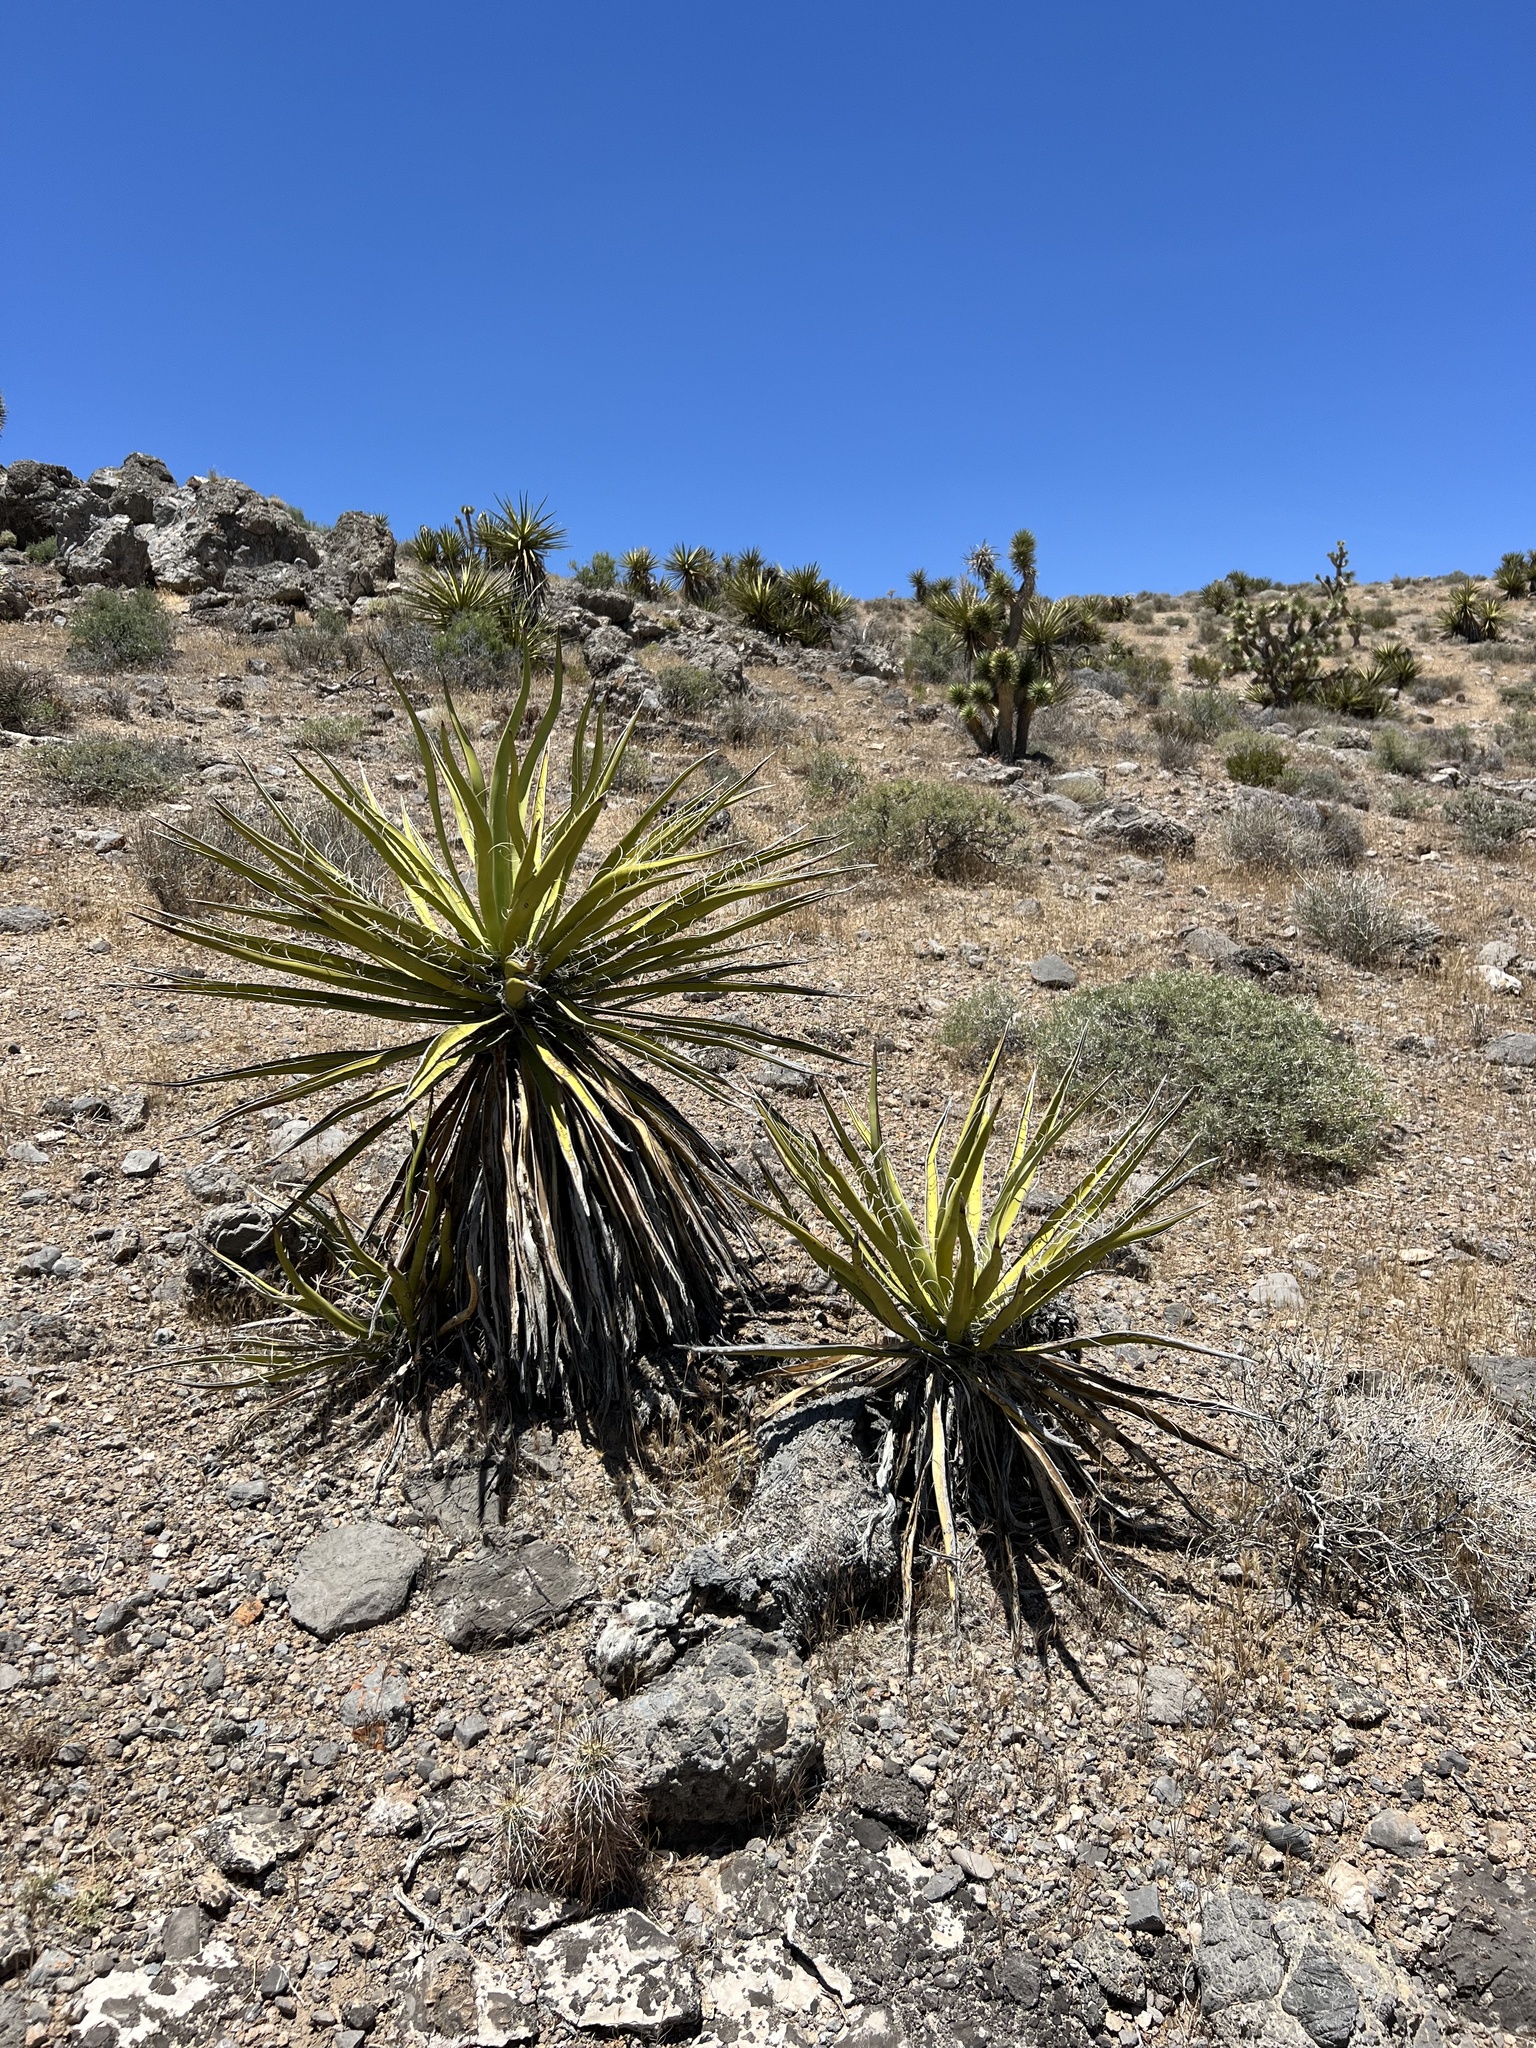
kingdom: Plantae
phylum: Tracheophyta
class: Liliopsida
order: Asparagales
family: Asparagaceae
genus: Yucca
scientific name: Yucca schidigera
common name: Mojave yucca
